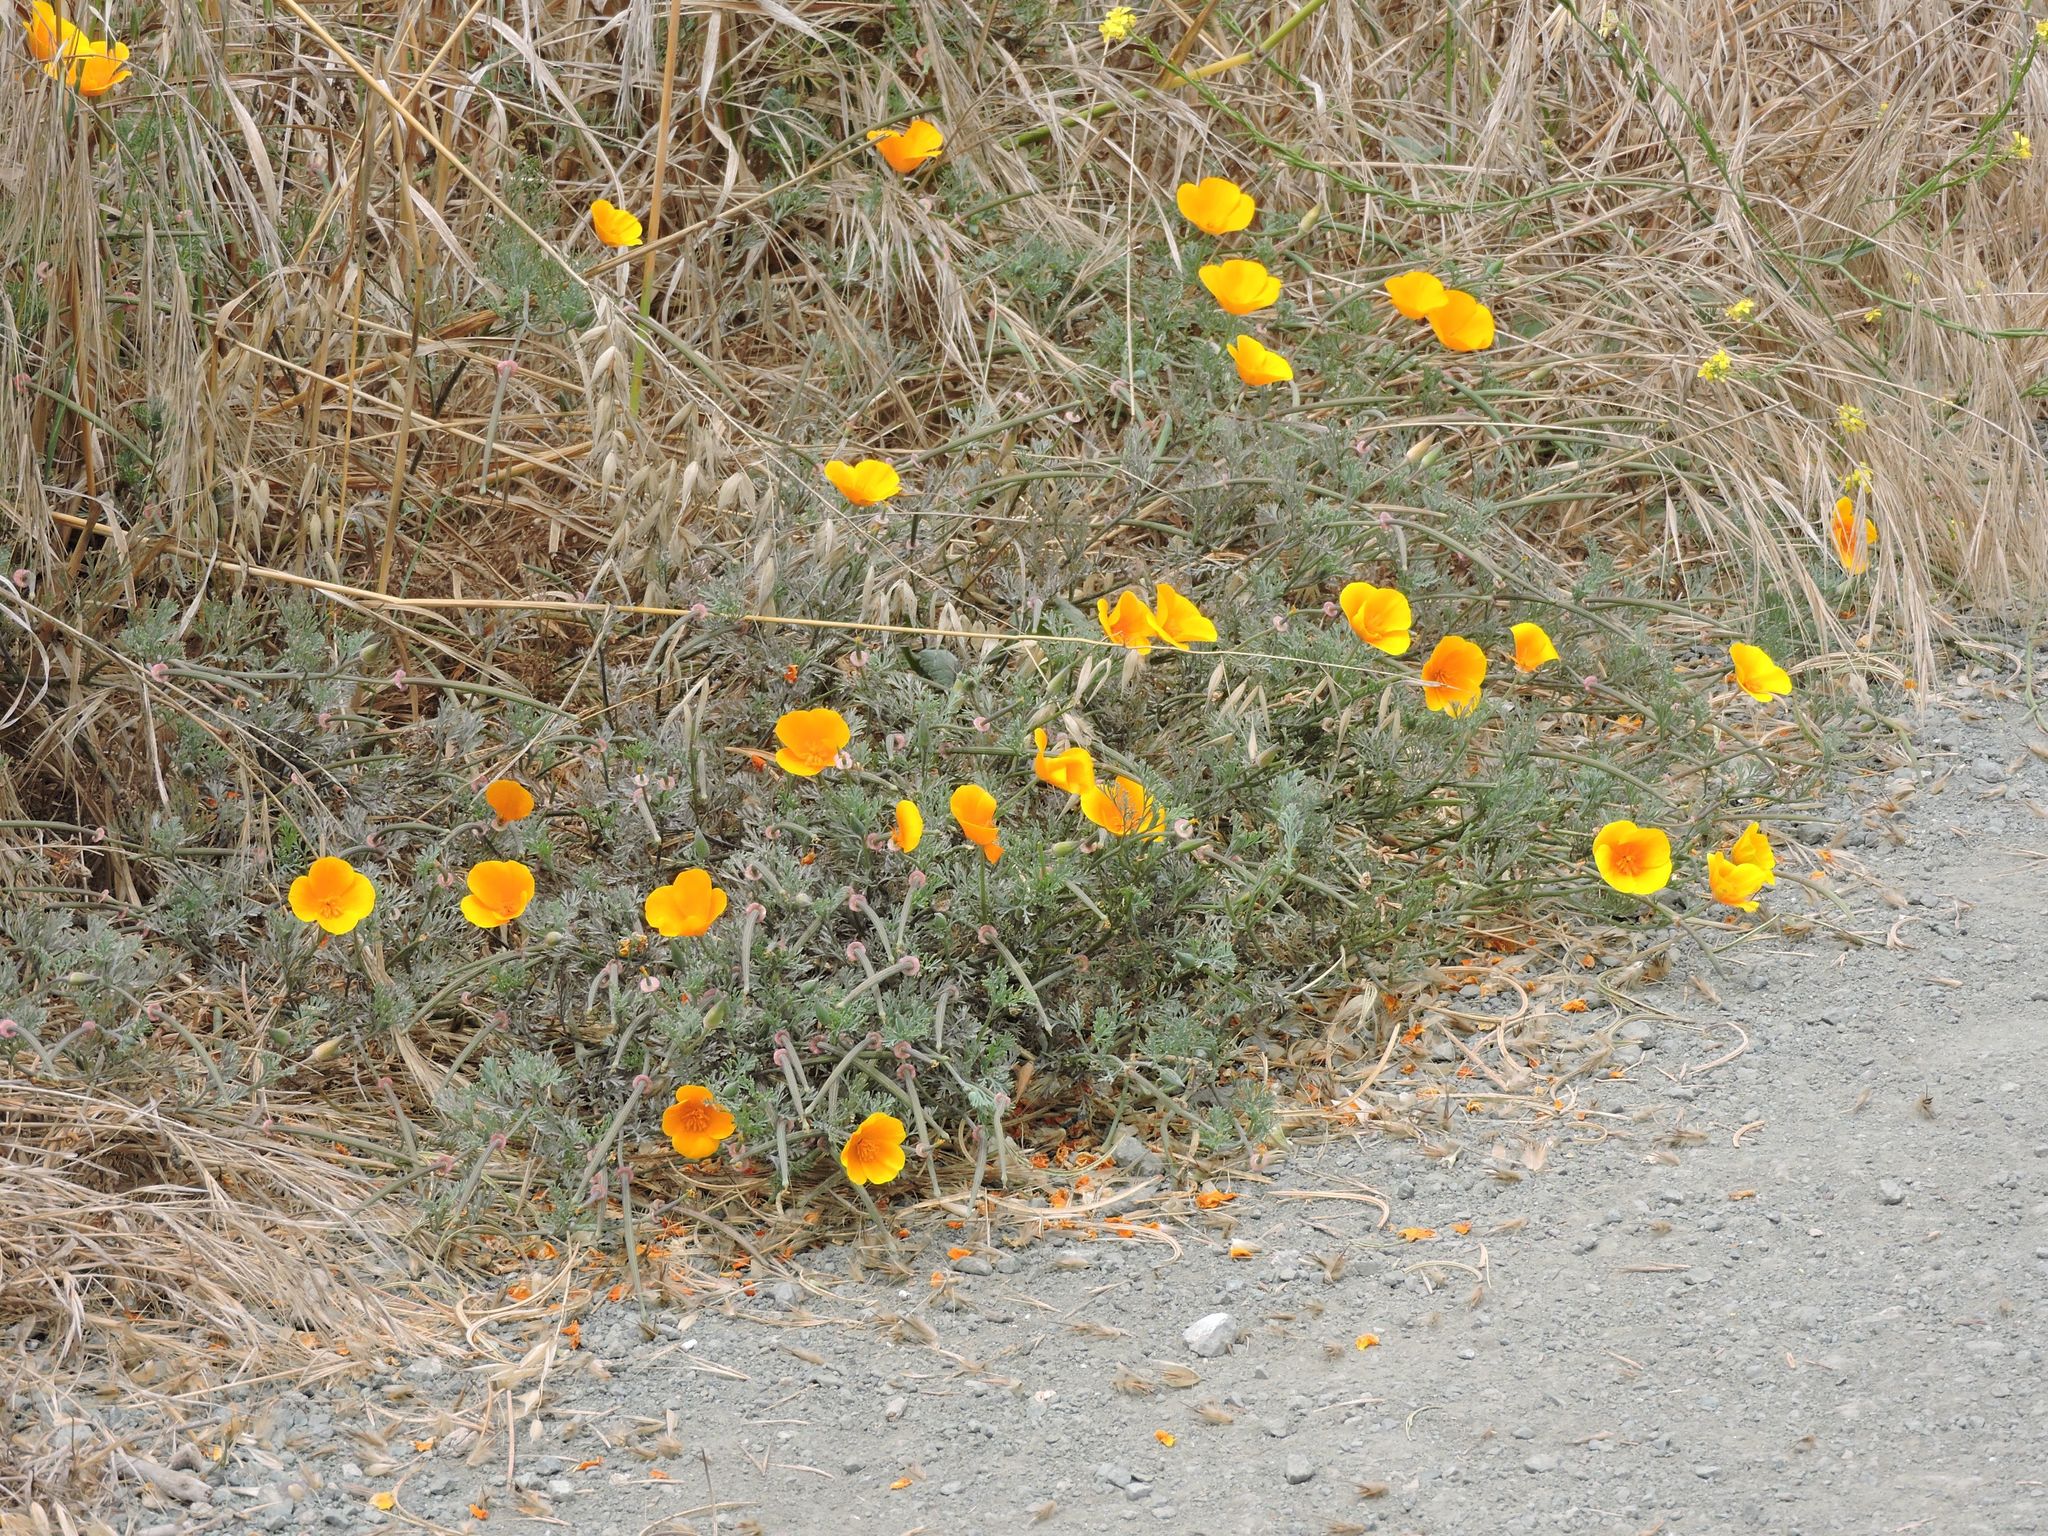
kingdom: Plantae
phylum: Tracheophyta
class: Magnoliopsida
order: Ranunculales
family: Papaveraceae
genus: Eschscholzia
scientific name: Eschscholzia californica
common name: California poppy
